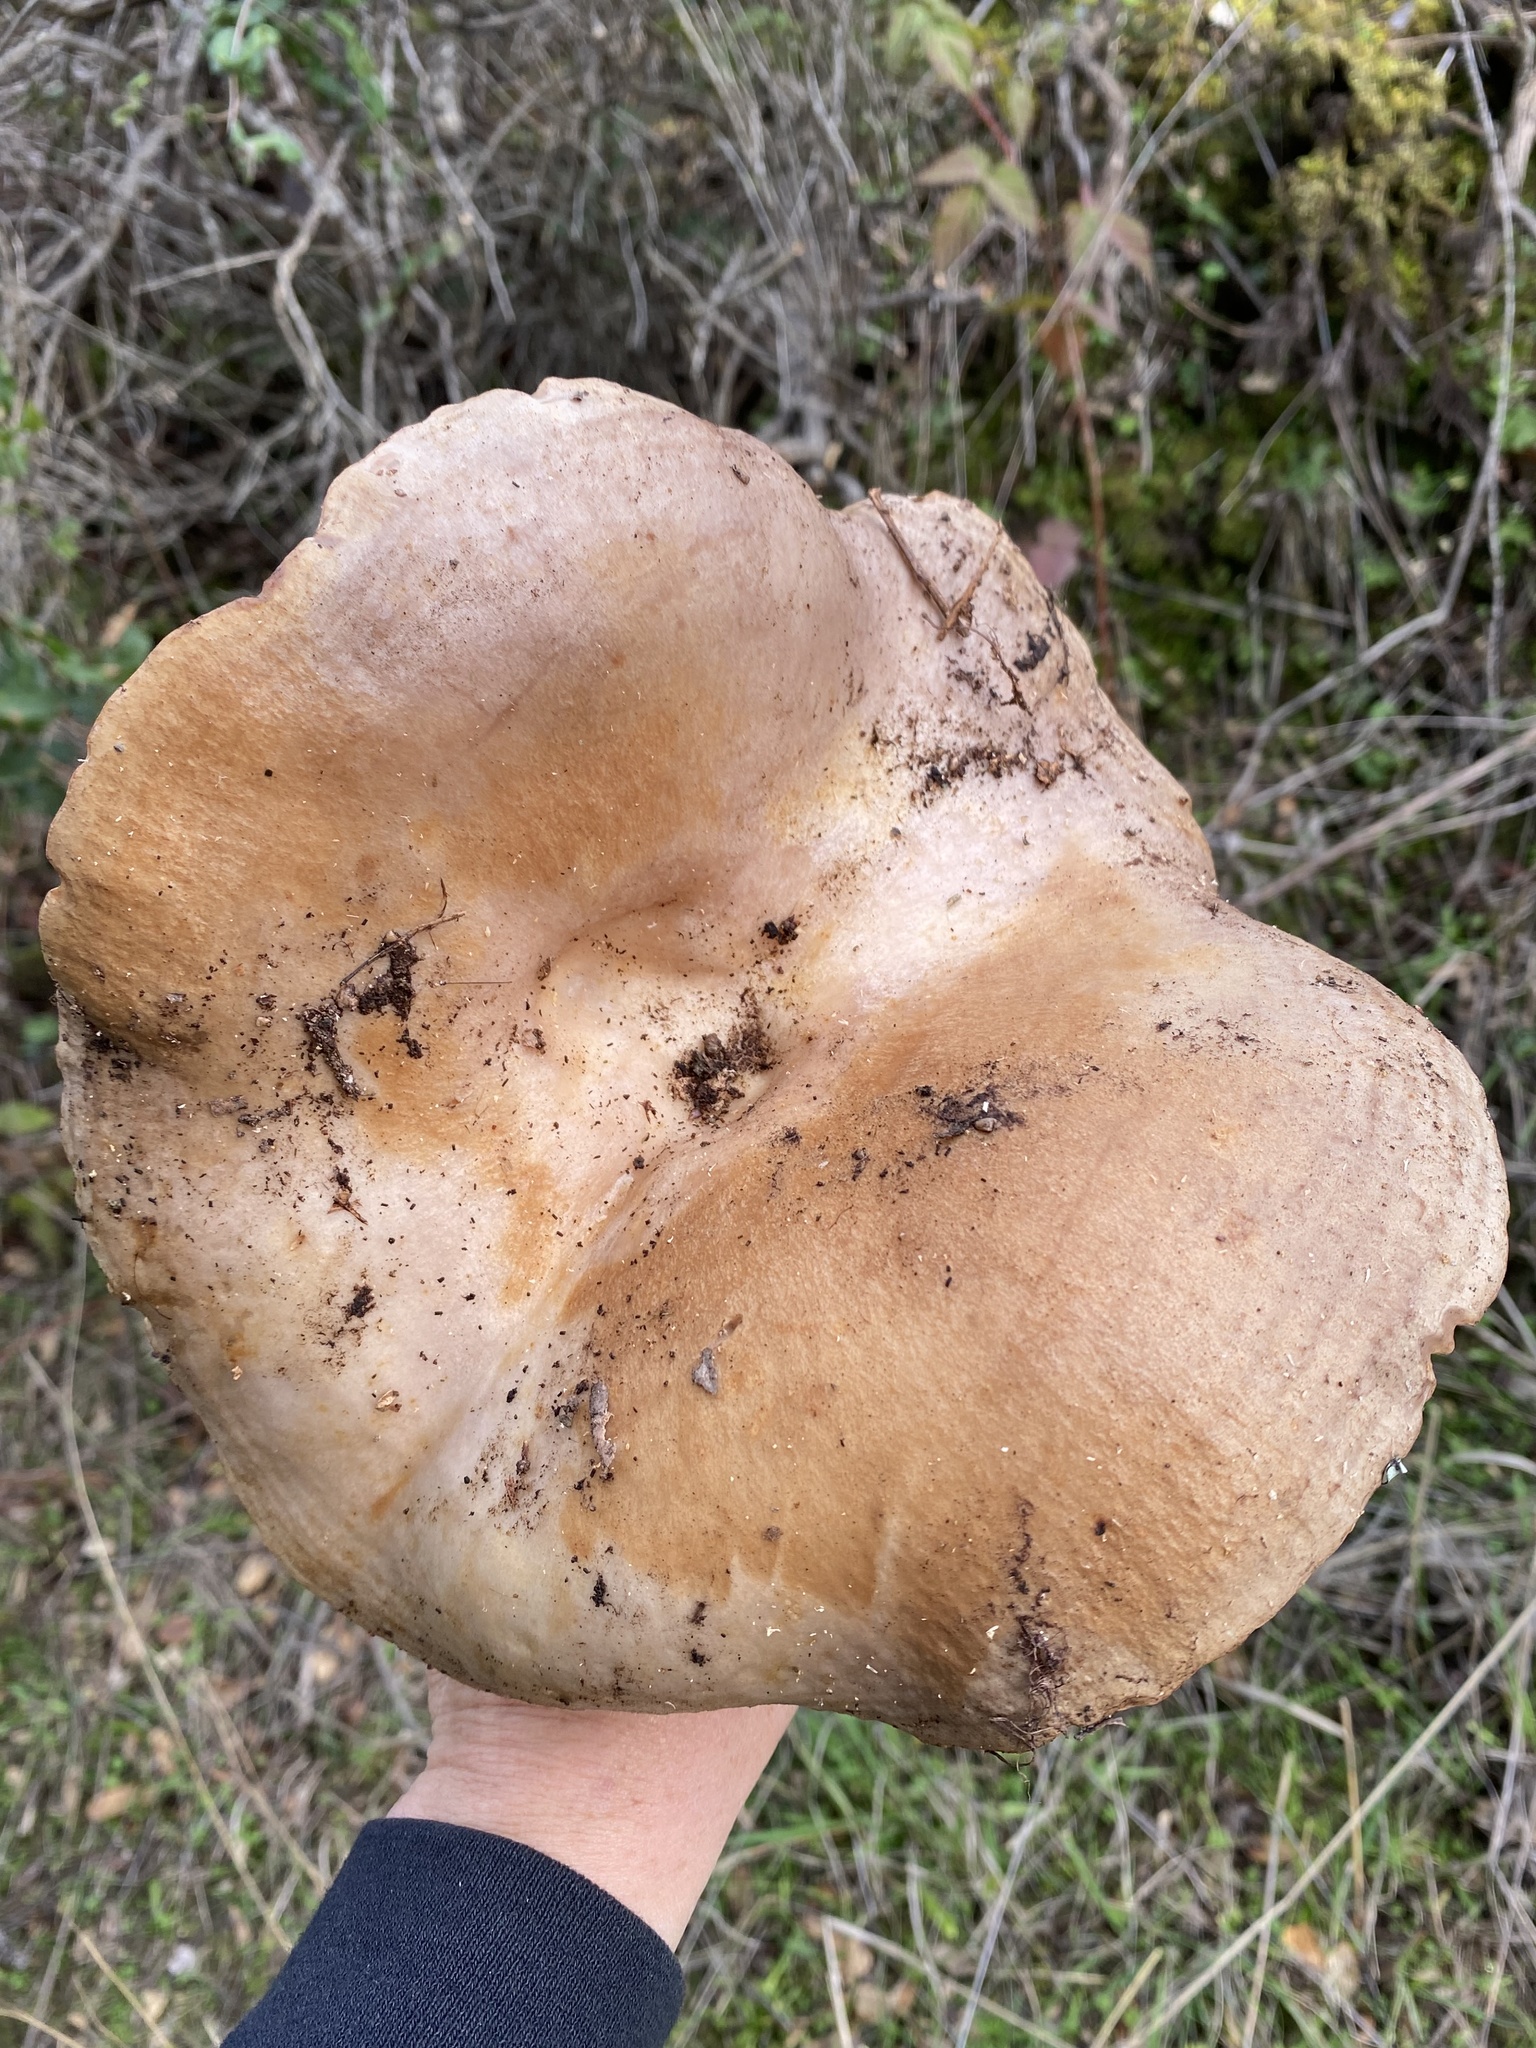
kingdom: Fungi
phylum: Basidiomycota
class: Agaricomycetes
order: Russulales
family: Russulaceae
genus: Lactarius
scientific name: Lactarius argillaceifolius
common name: Clay-gilled milkcap
